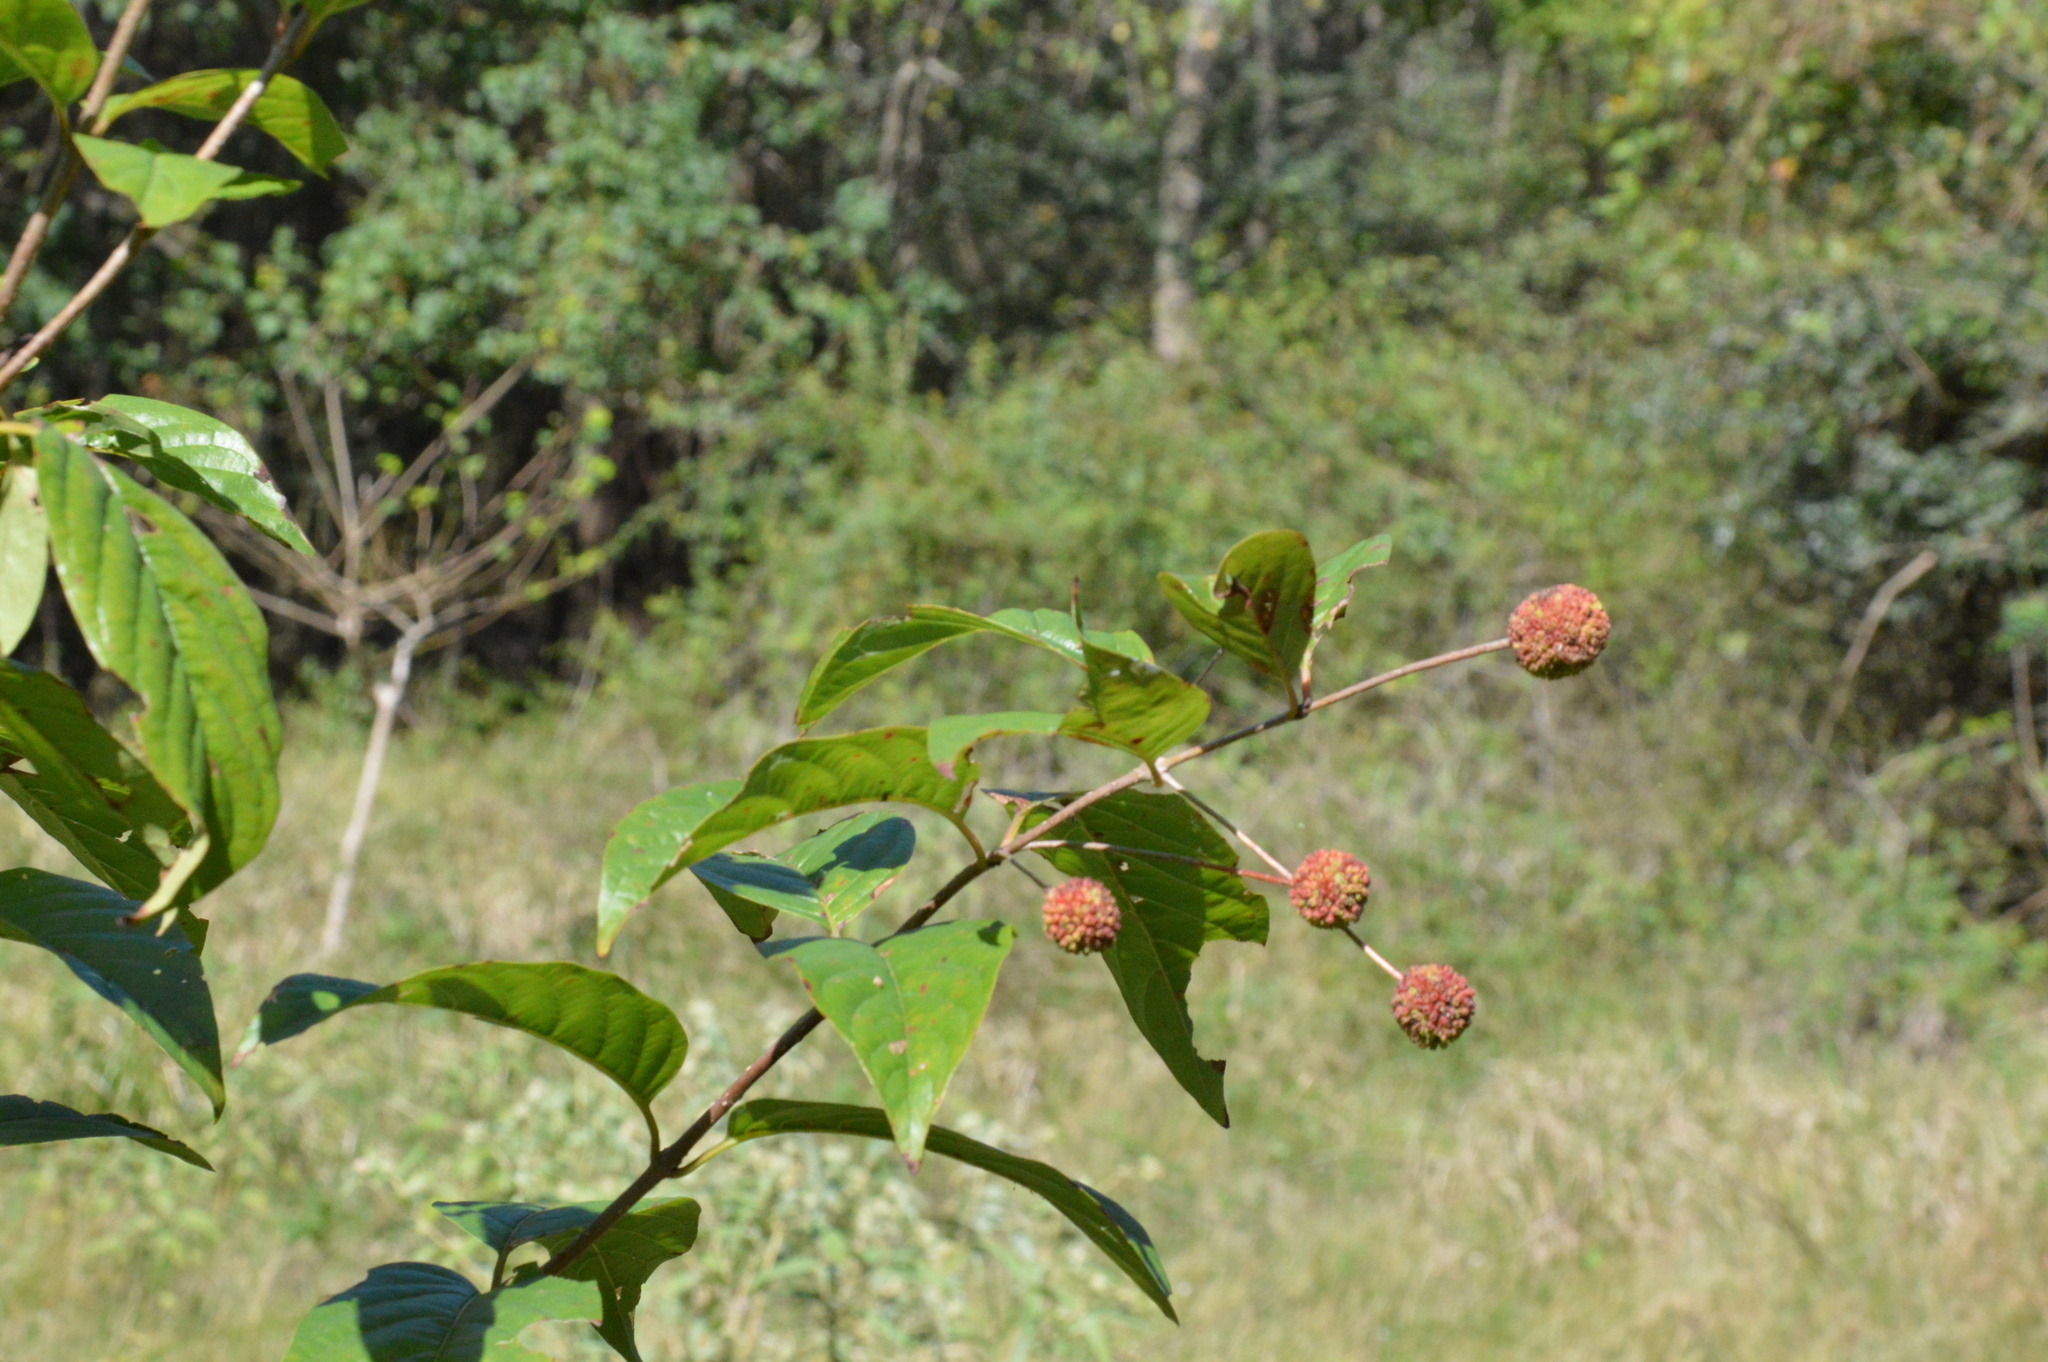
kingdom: Plantae
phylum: Tracheophyta
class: Magnoliopsida
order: Gentianales
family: Rubiaceae
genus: Cephalanthus
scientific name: Cephalanthus occidentalis
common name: Button-willow
